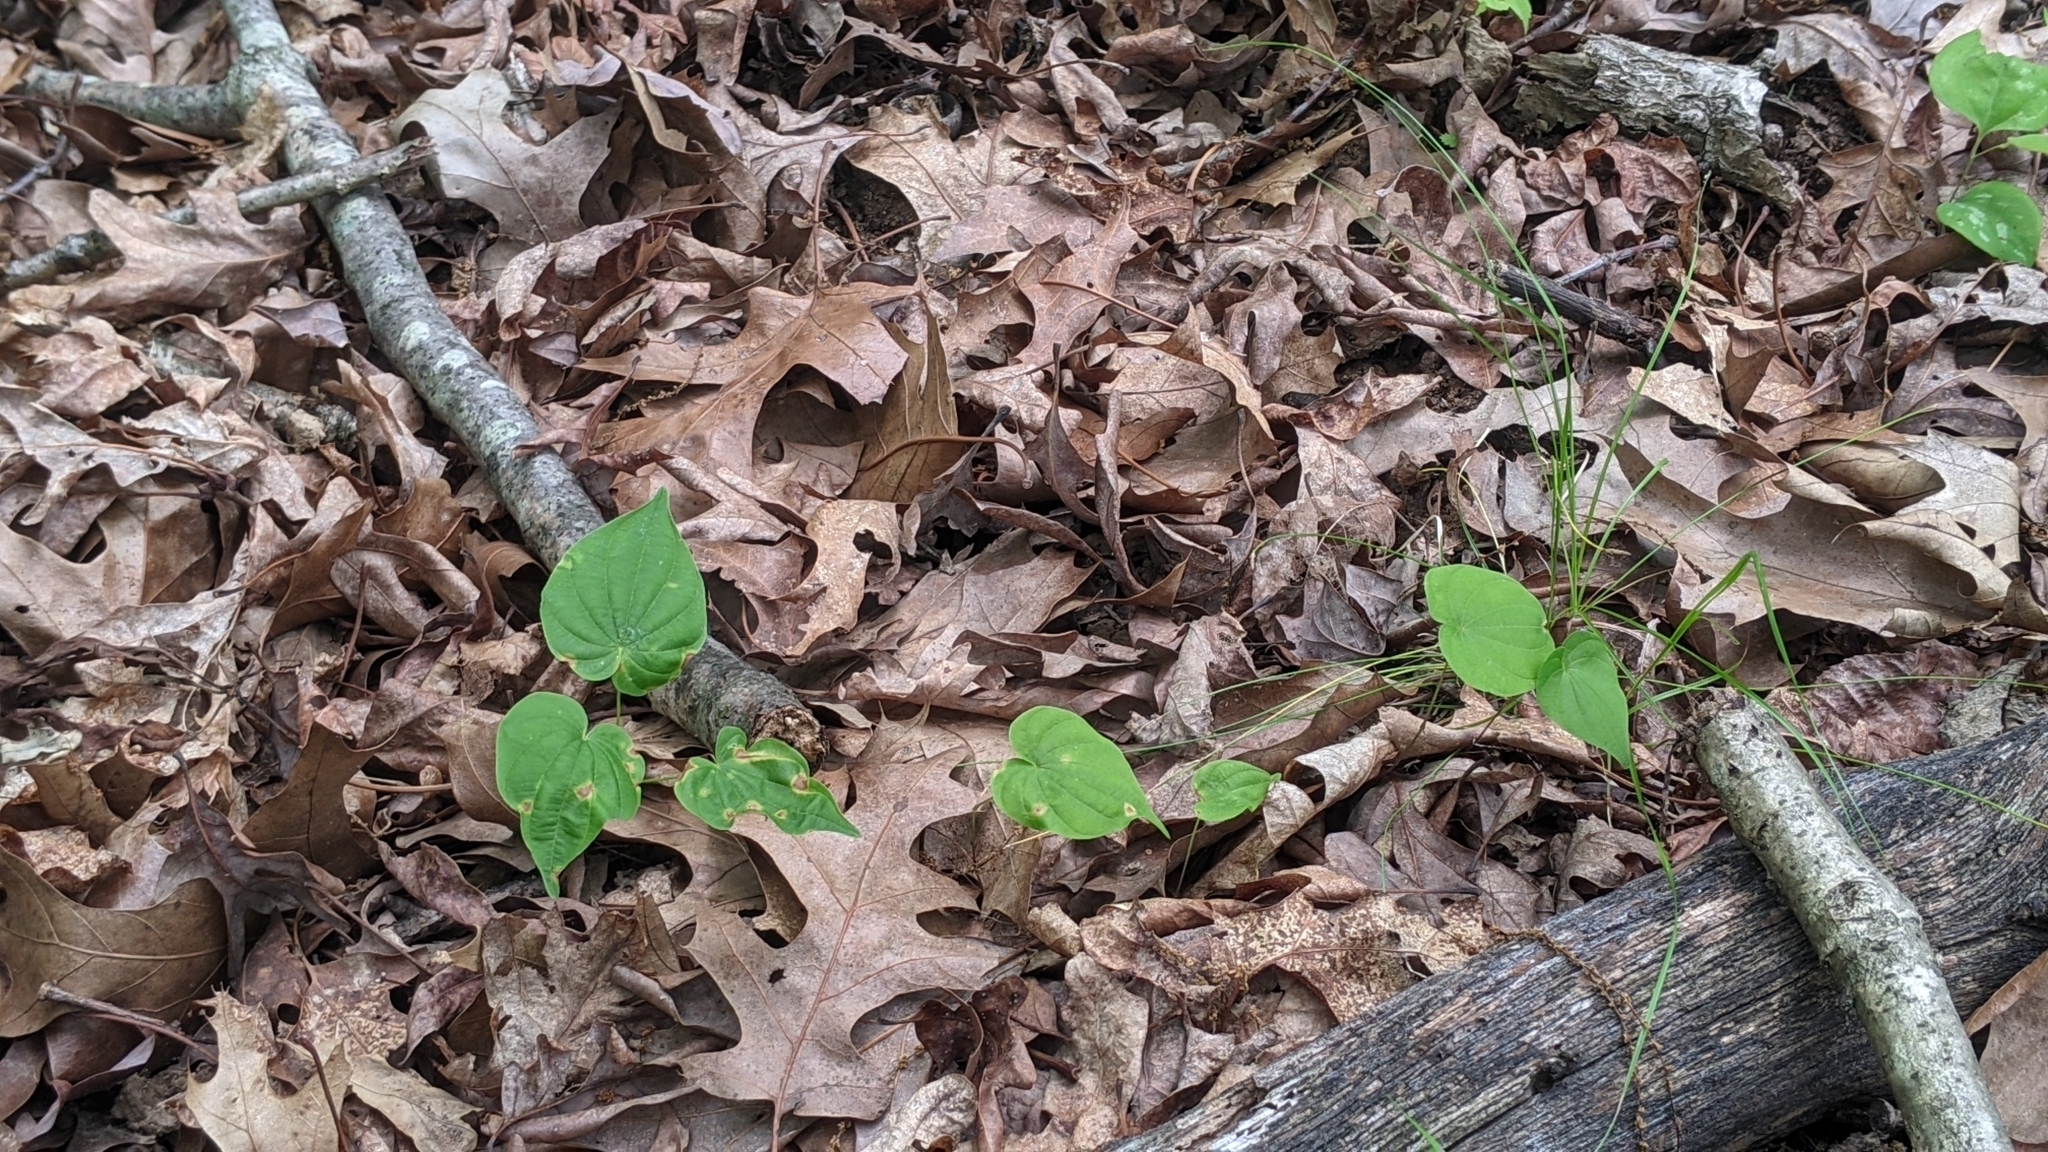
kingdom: Plantae
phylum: Tracheophyta
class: Liliopsida
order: Dioscoreales
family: Dioscoreaceae
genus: Dioscorea
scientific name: Dioscorea villosa
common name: Wild yam
